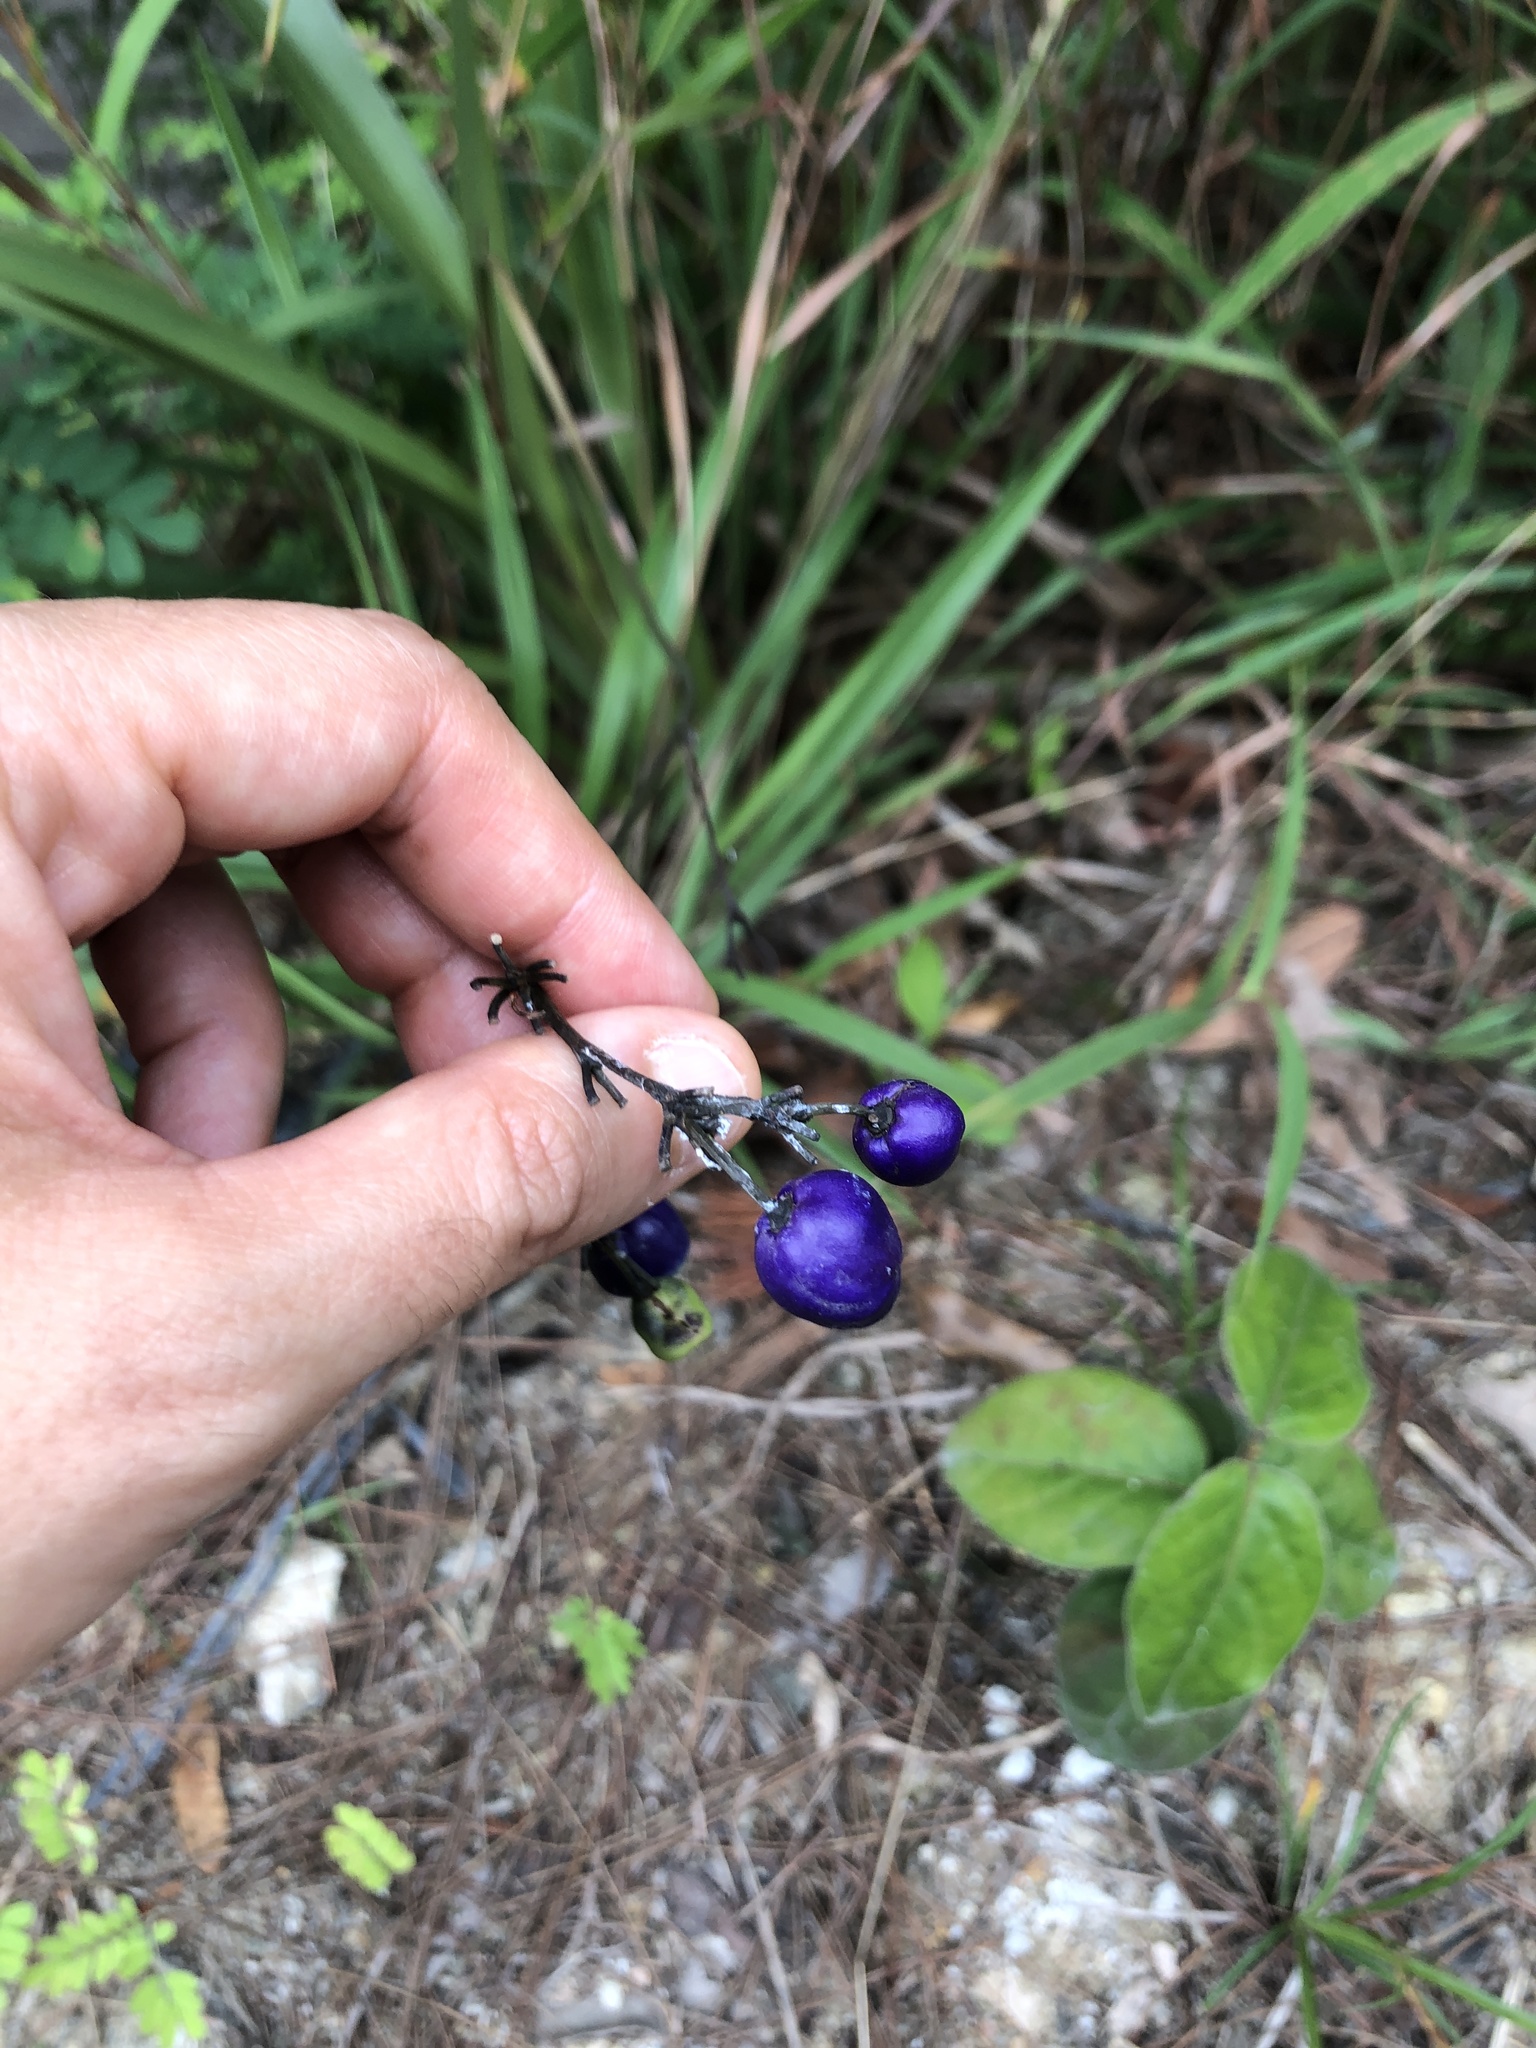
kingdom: Plantae
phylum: Tracheophyta
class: Liliopsida
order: Asparagales
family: Asphodelaceae
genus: Dianella
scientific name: Dianella ensifolia
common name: New zealand lilyplant
